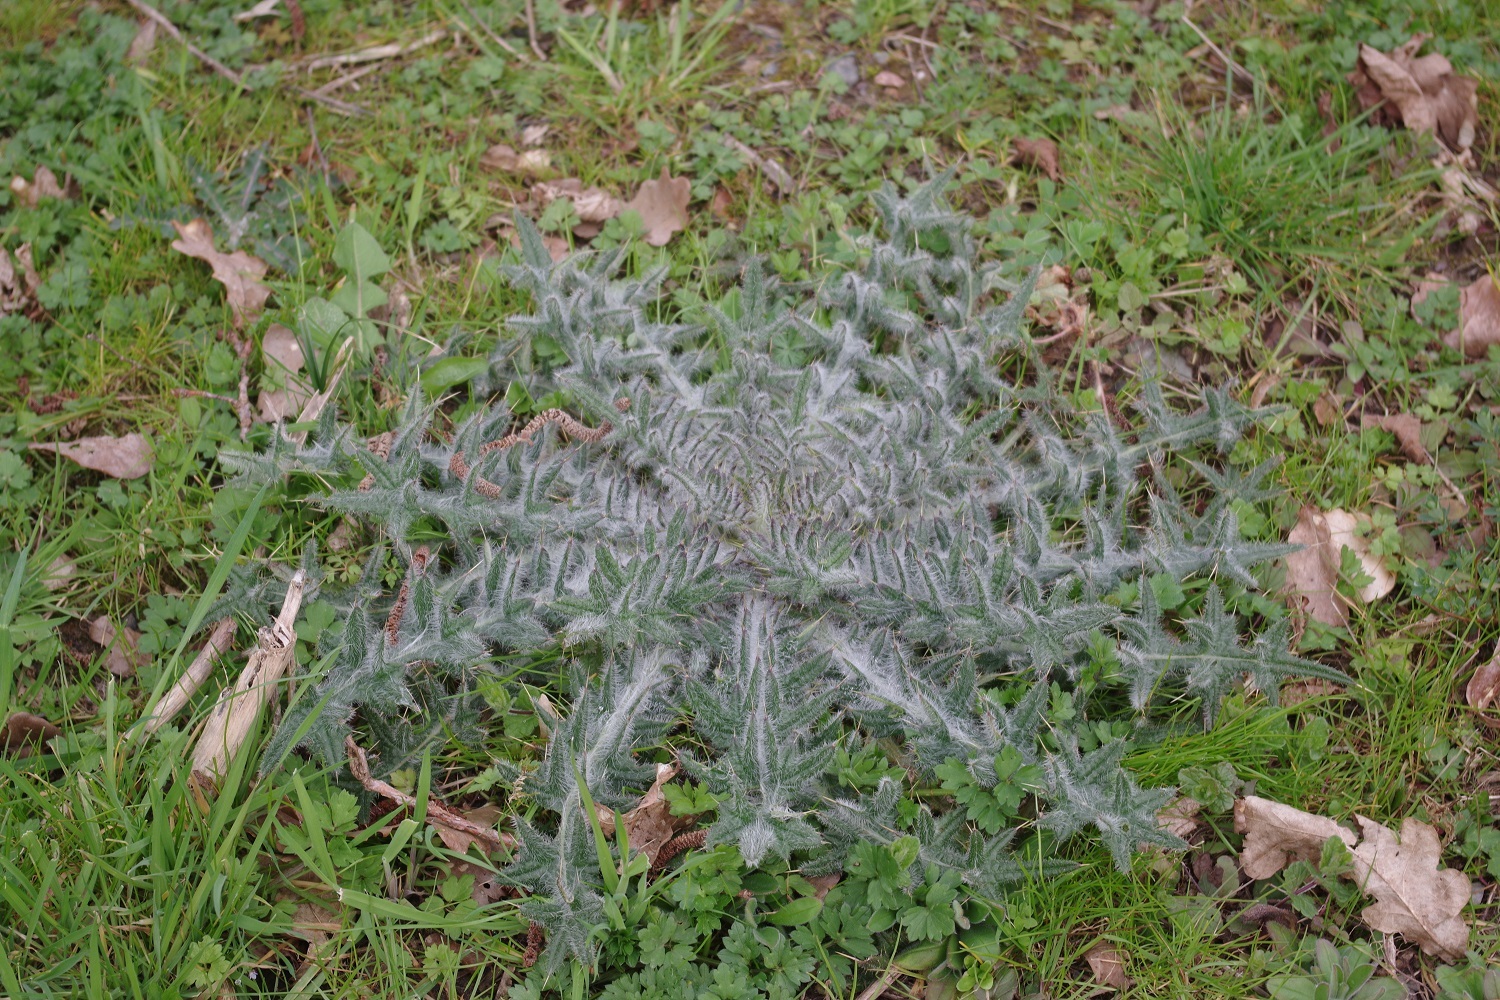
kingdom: Plantae
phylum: Tracheophyta
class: Magnoliopsida
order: Asterales
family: Asteraceae
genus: Cirsium
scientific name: Cirsium vulgare
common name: Bull thistle
